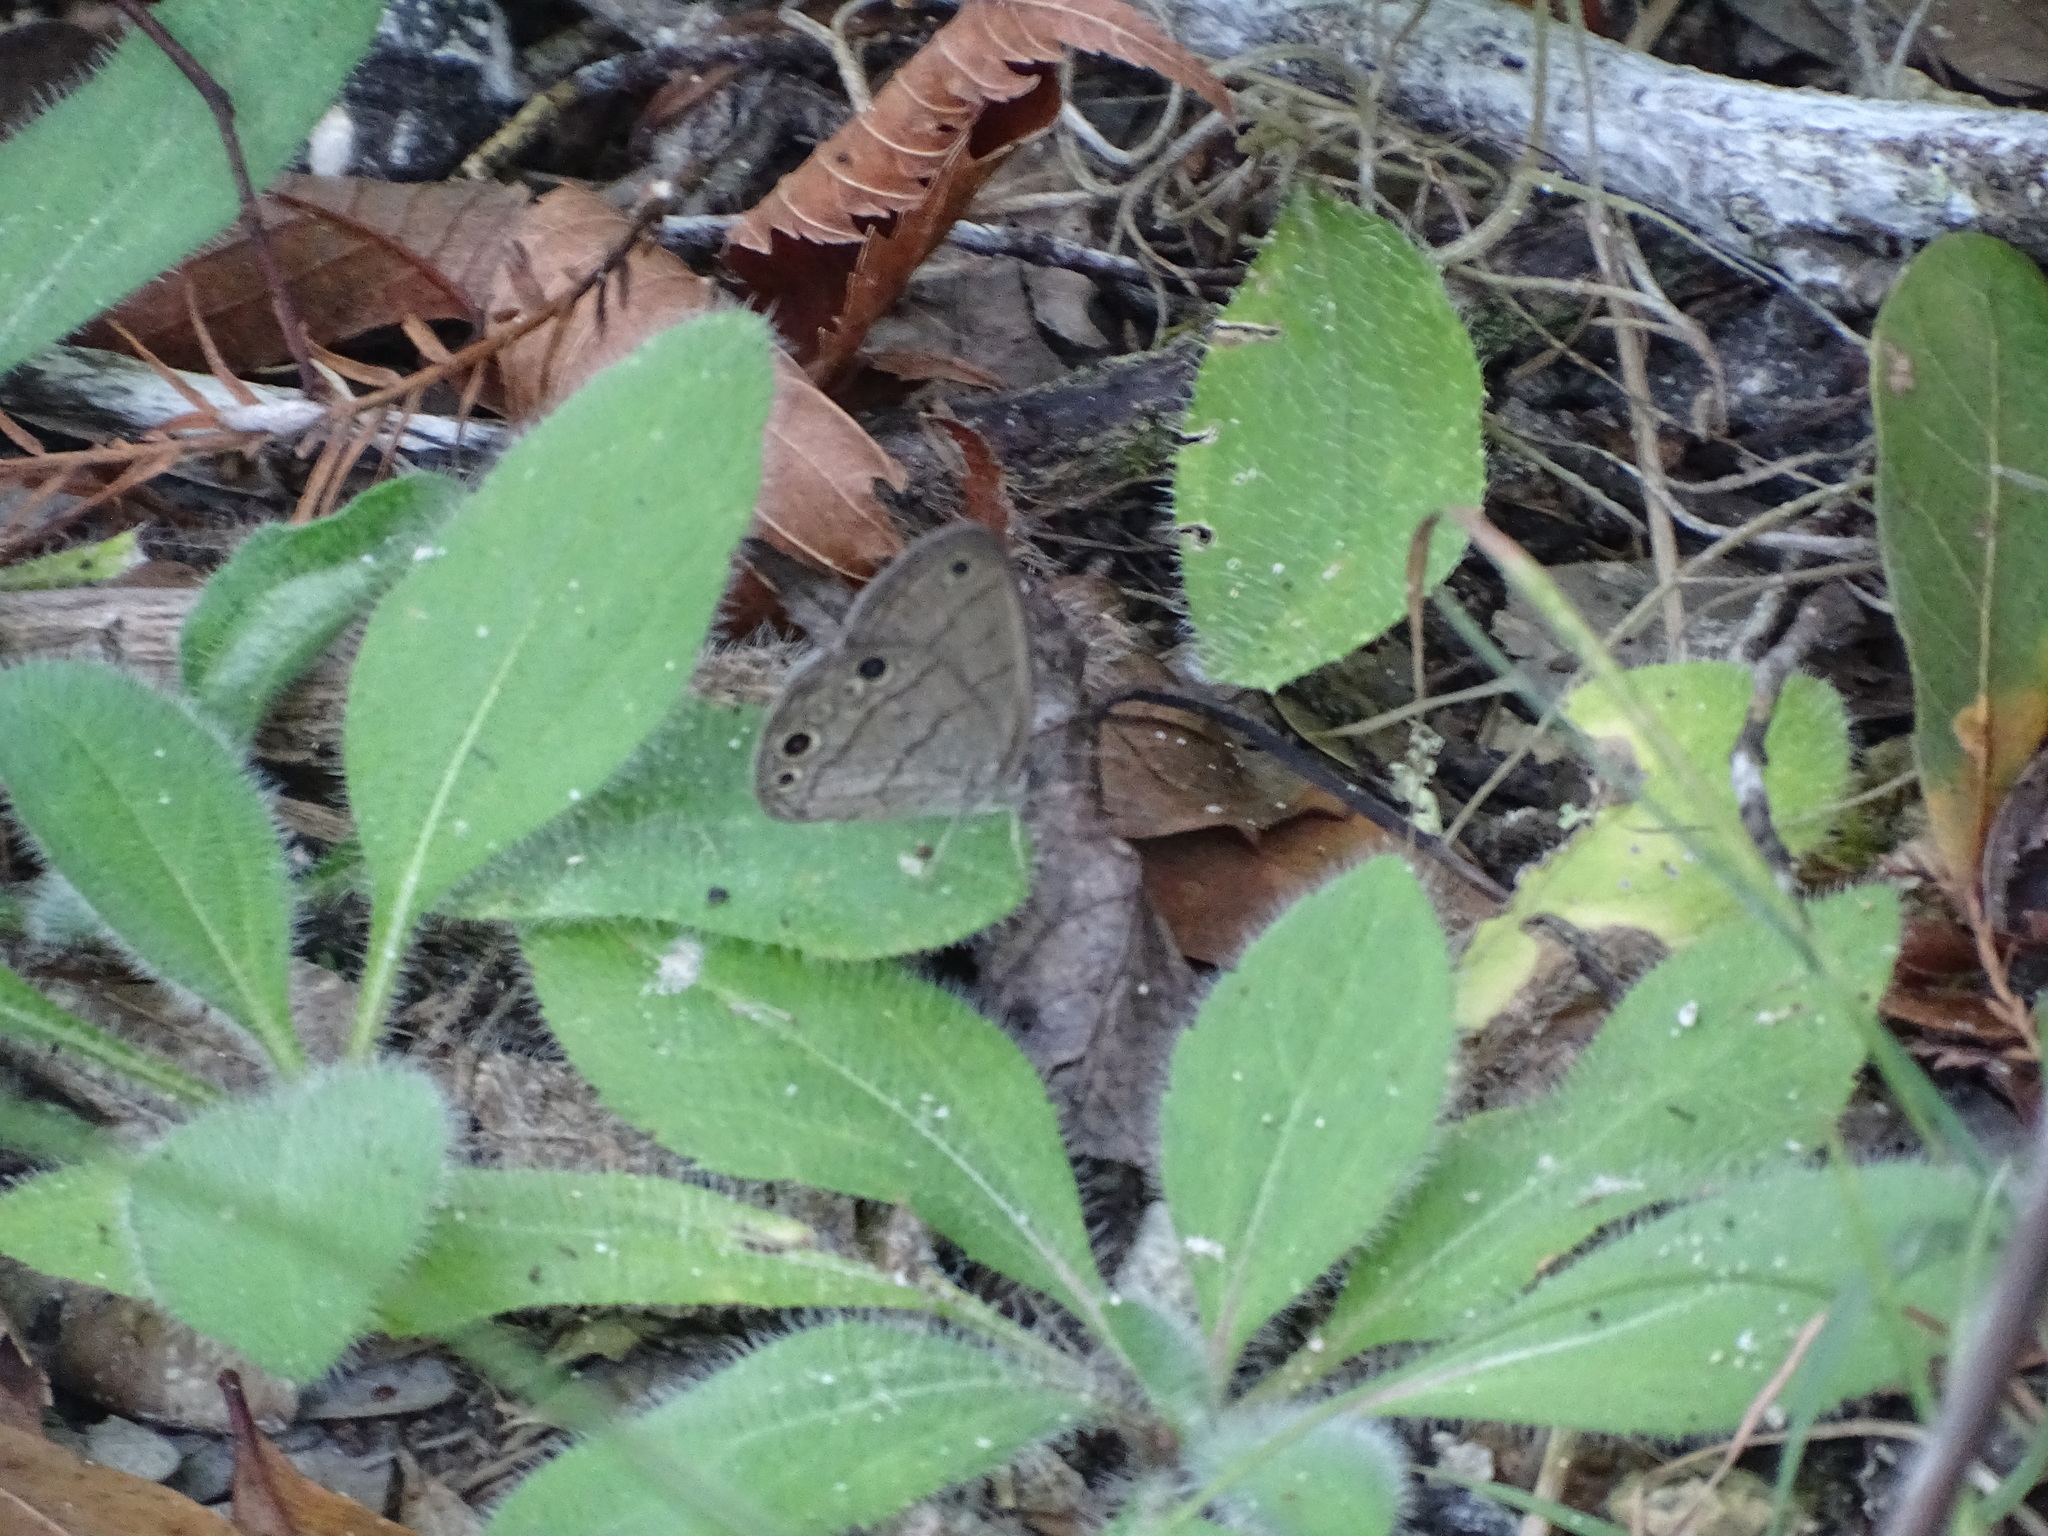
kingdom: Animalia
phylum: Arthropoda
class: Insecta
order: Lepidoptera
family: Nymphalidae
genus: Hermeuptychia
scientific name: Hermeuptychia hermes
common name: Hermes satyr
